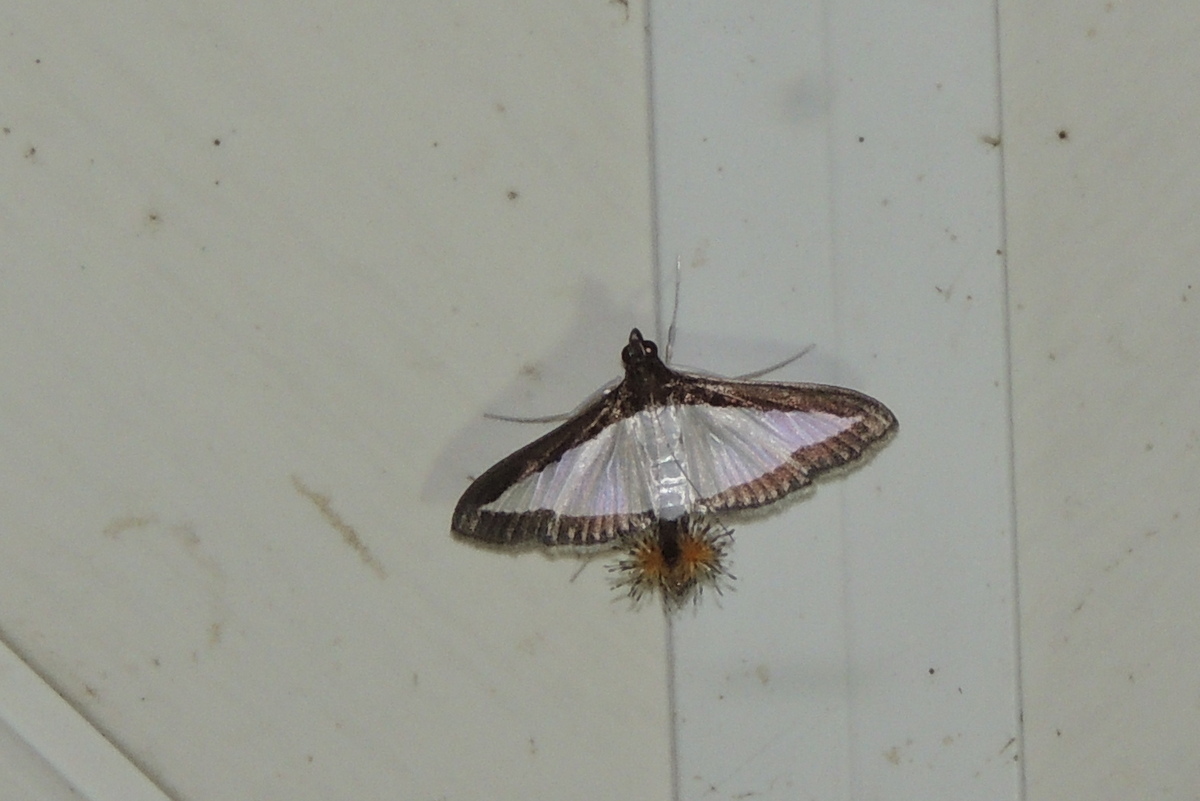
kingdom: Animalia
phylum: Arthropoda
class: Insecta
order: Lepidoptera
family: Crambidae
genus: Diaphania
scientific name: Diaphania hyalinata
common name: Melonworm
